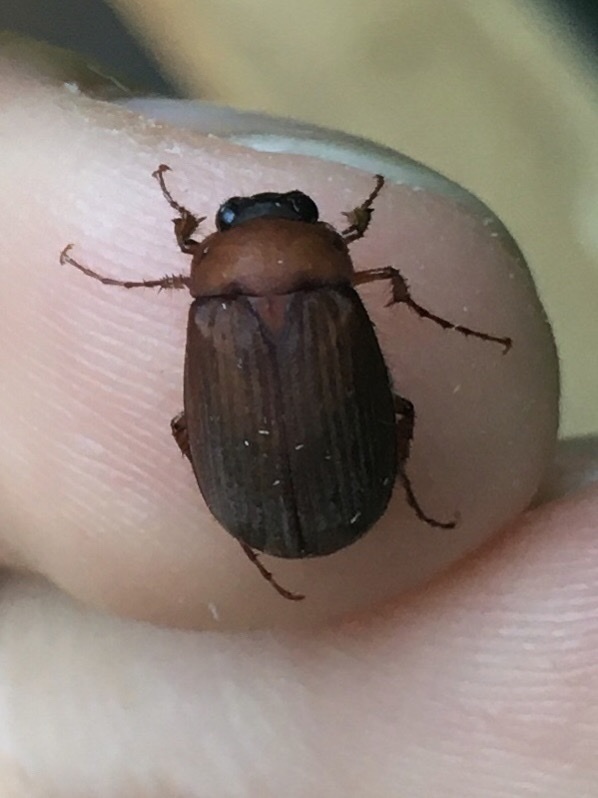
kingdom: Animalia
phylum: Arthropoda
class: Insecta
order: Coleoptera
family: Scarabaeidae
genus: Serica
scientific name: Serica brunnea
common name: Brown chafer
